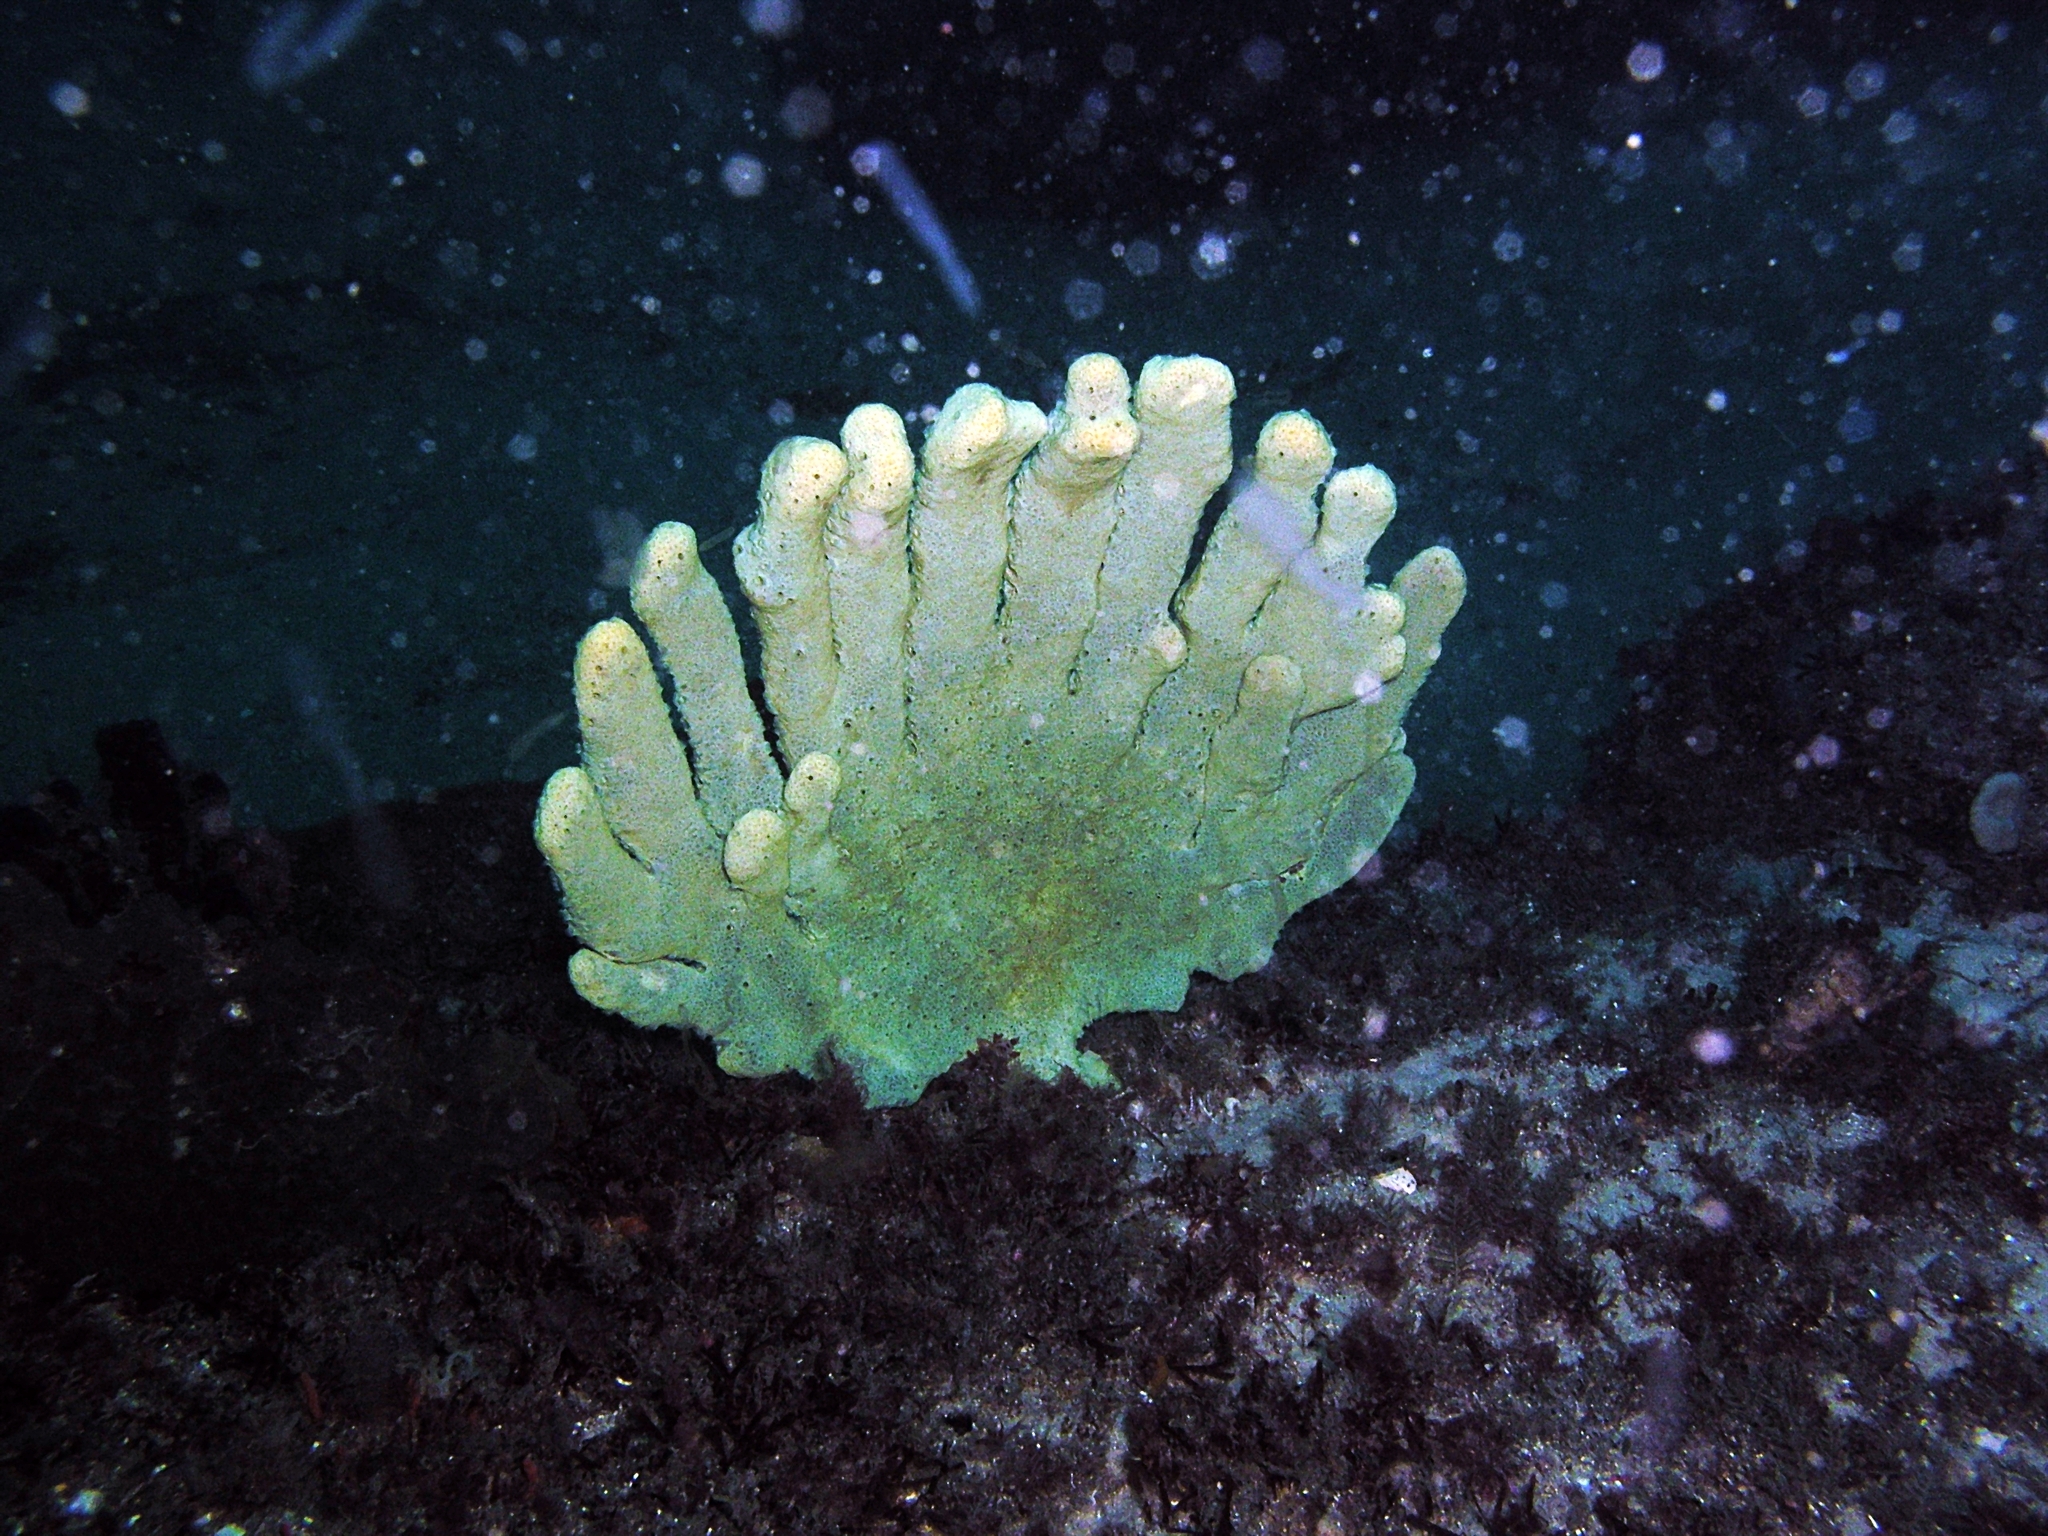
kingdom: Animalia
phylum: Porifera
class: Demospongiae
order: Haplosclerida
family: Callyspongiidae
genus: Callyspongia
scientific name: Callyspongia manus
